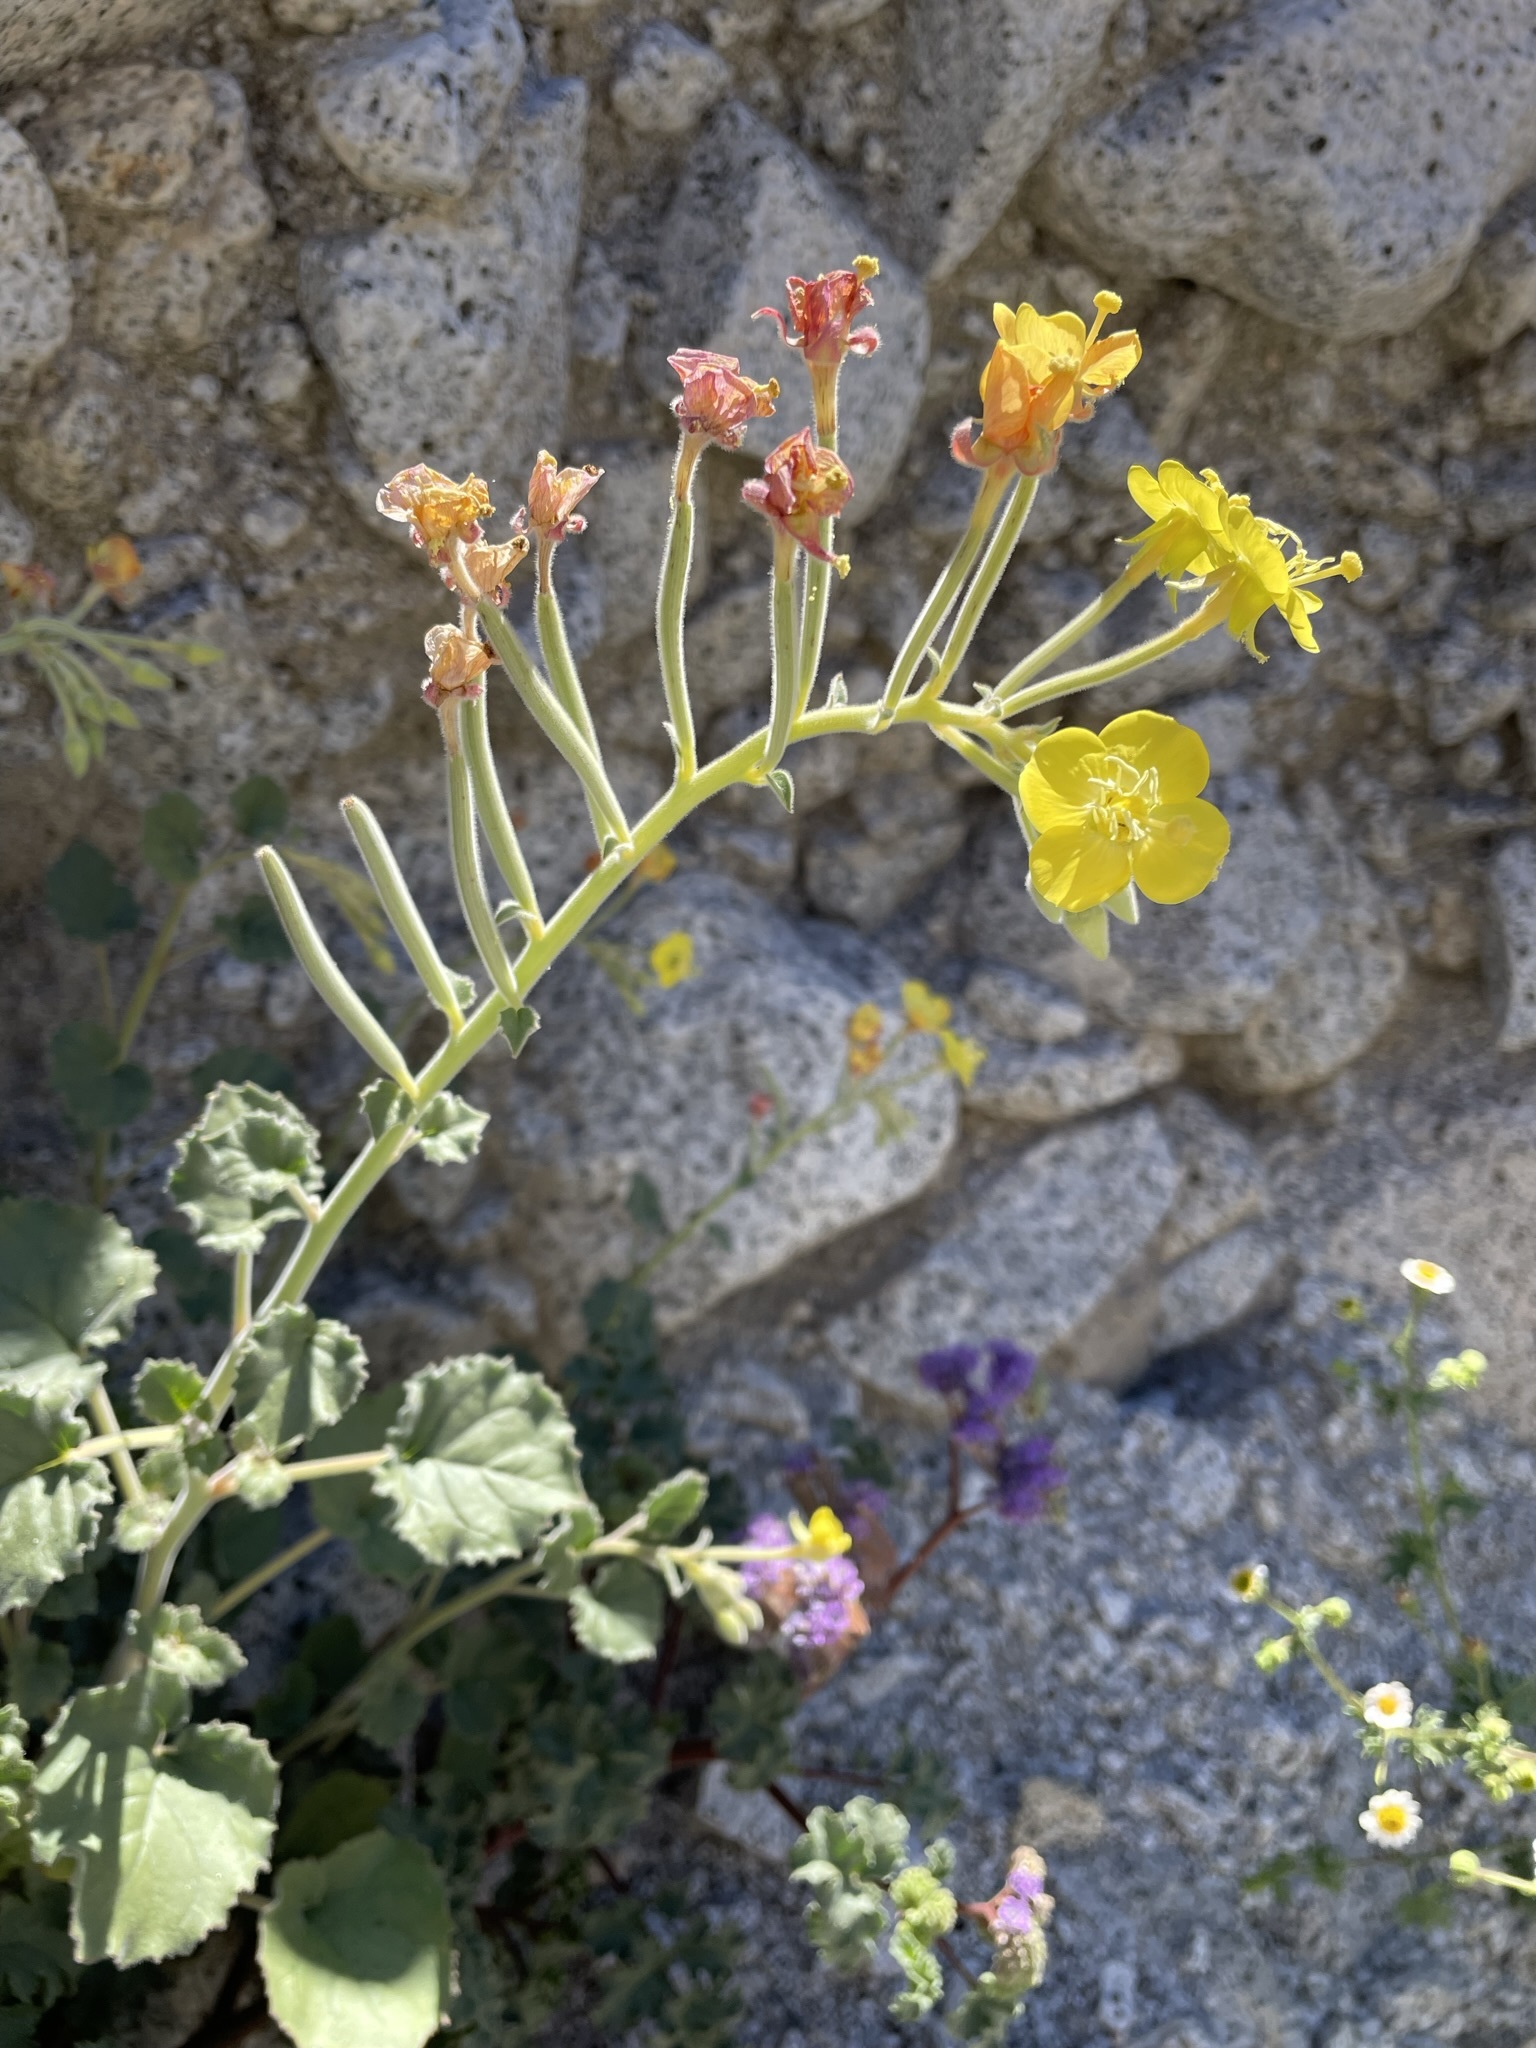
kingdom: Plantae
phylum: Tracheophyta
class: Magnoliopsida
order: Myrtales
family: Onagraceae
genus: Chylismia
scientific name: Chylismia cardiophylla
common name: Heartleaf suncup
